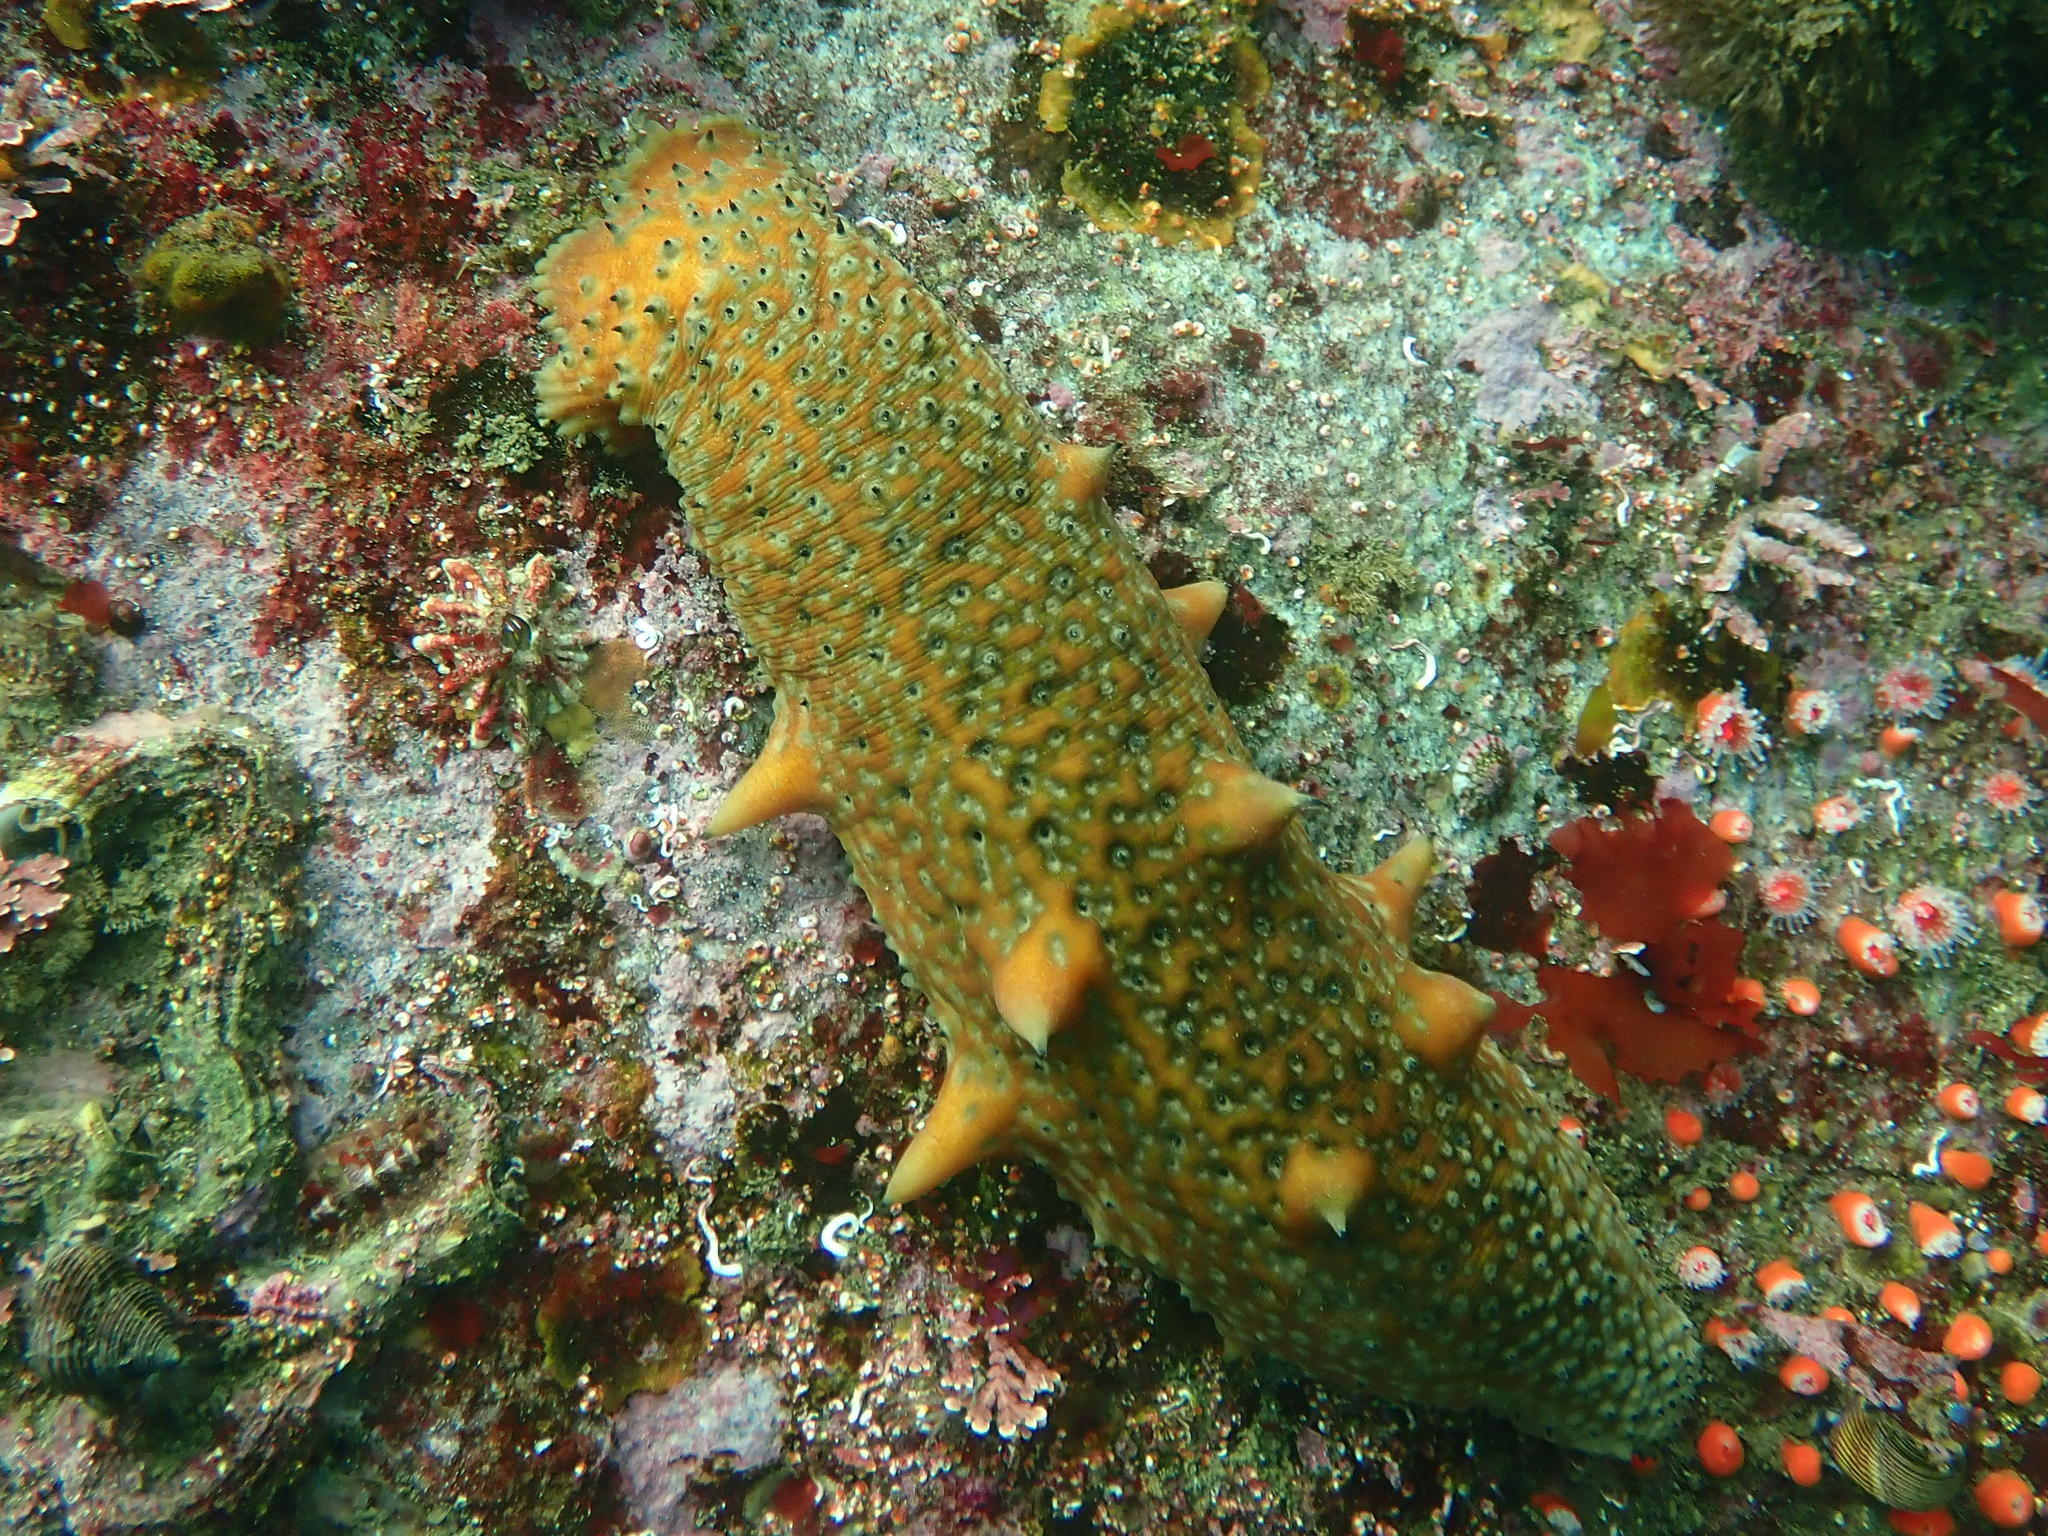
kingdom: Animalia
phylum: Echinodermata
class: Holothuroidea
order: Synallactida
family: Stichopodidae
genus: Apostichopus
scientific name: Apostichopus parvimensis
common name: Warty sea cucumber
